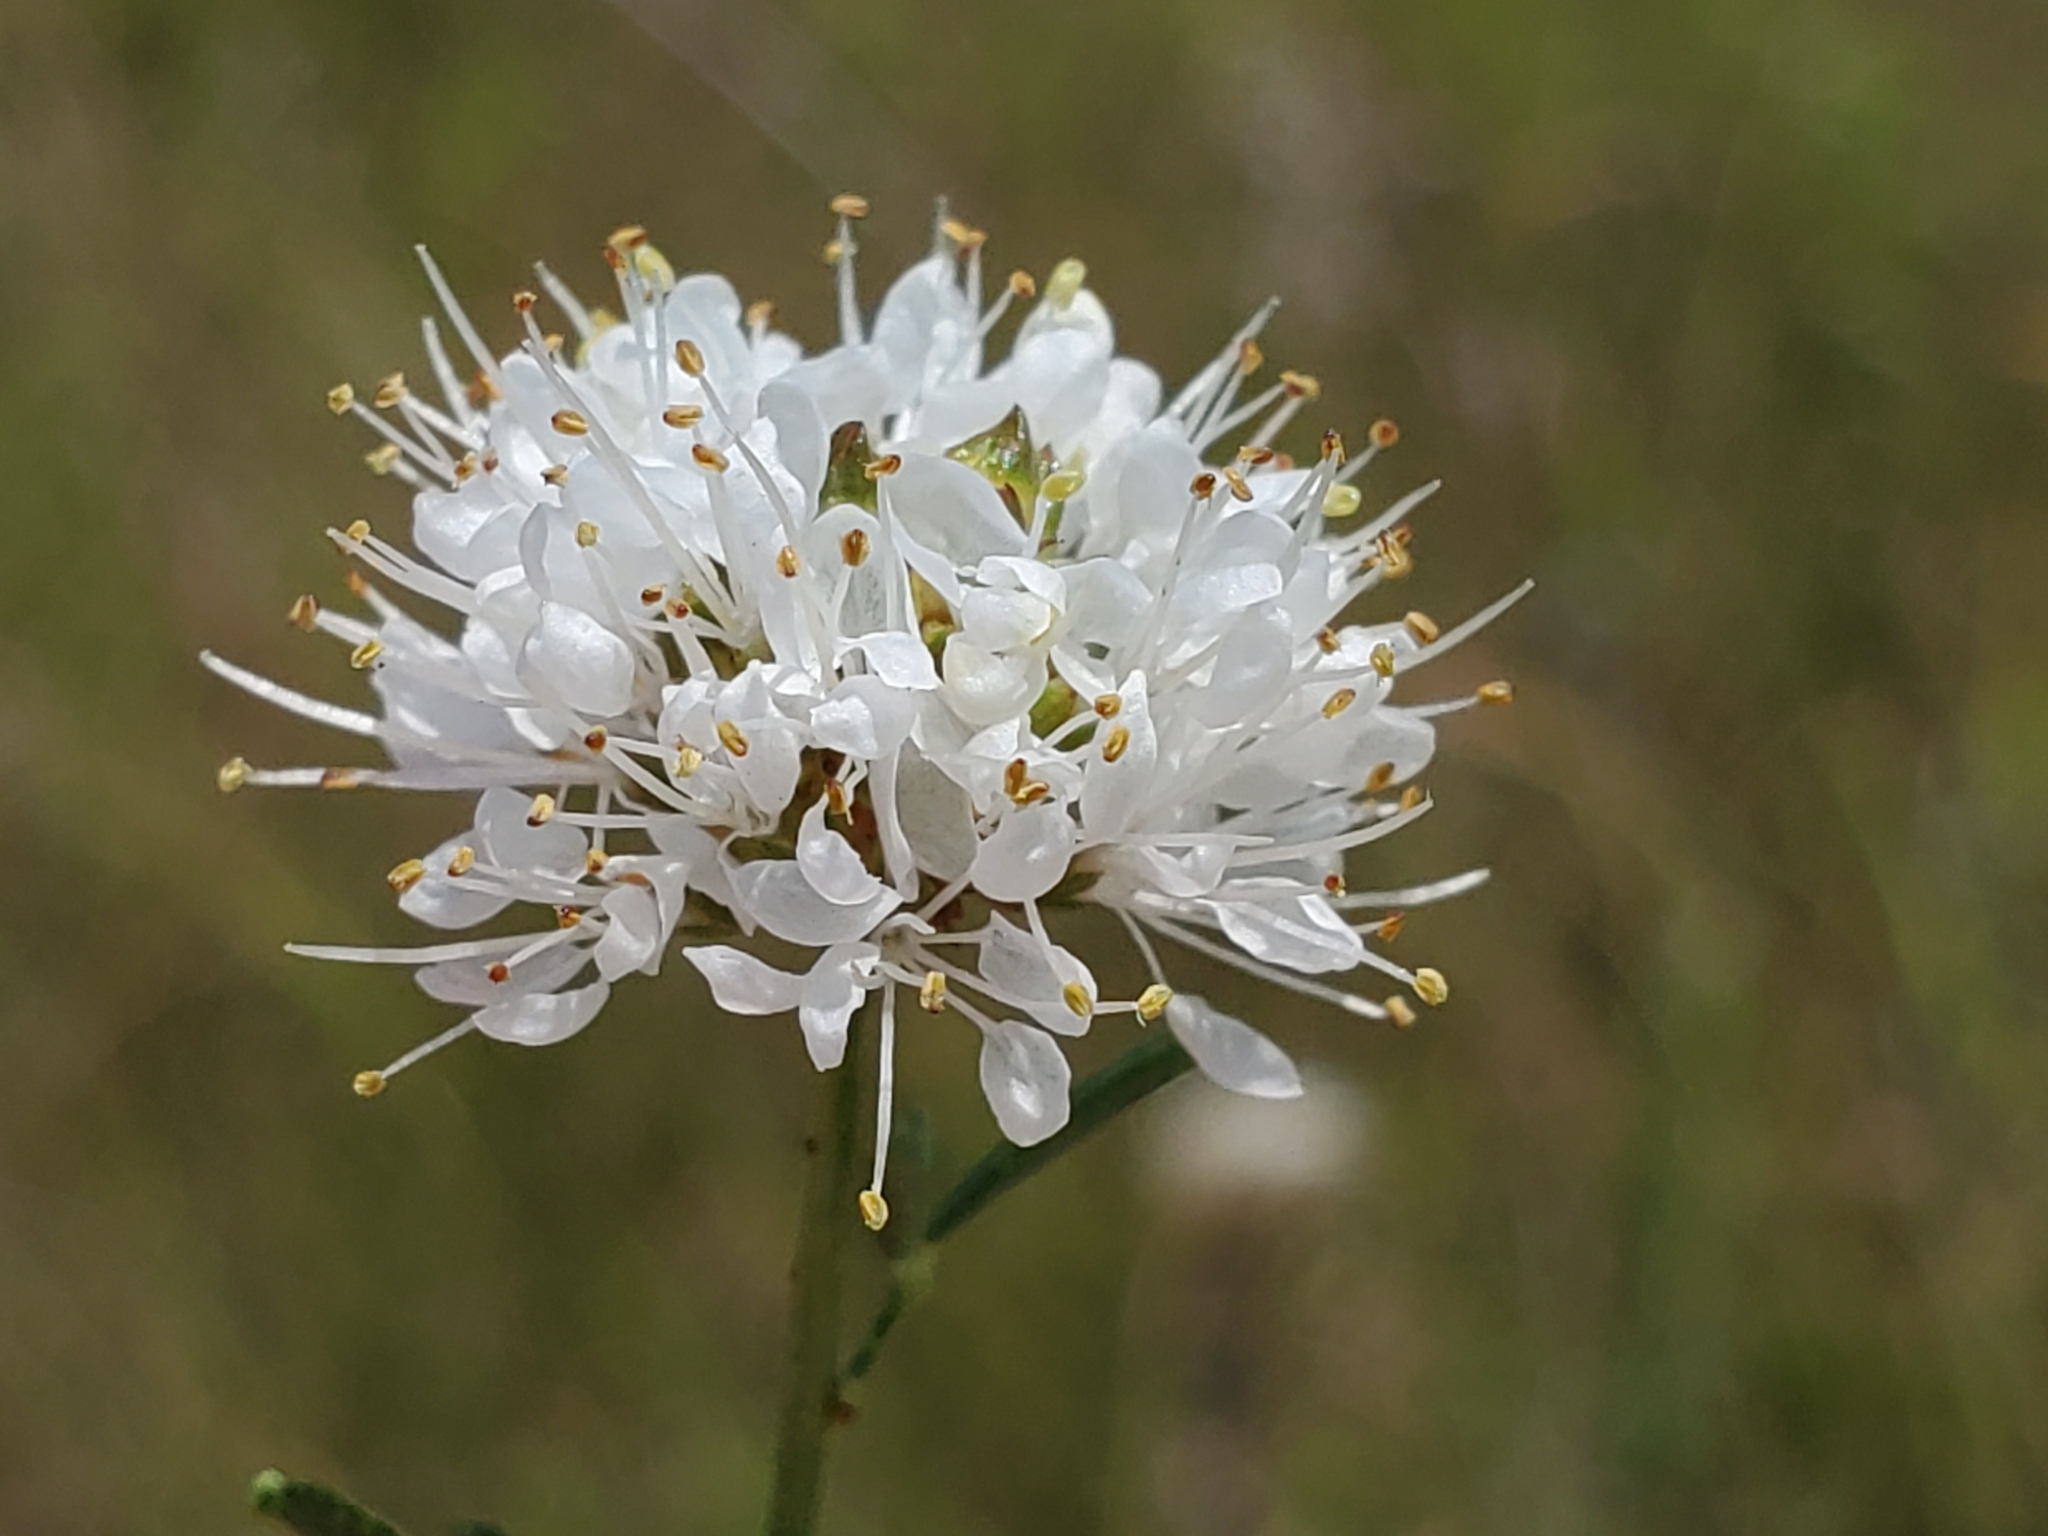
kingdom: Plantae
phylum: Tracheophyta
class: Magnoliopsida
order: Fabales
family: Fabaceae
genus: Dalea
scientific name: Dalea multiflora
